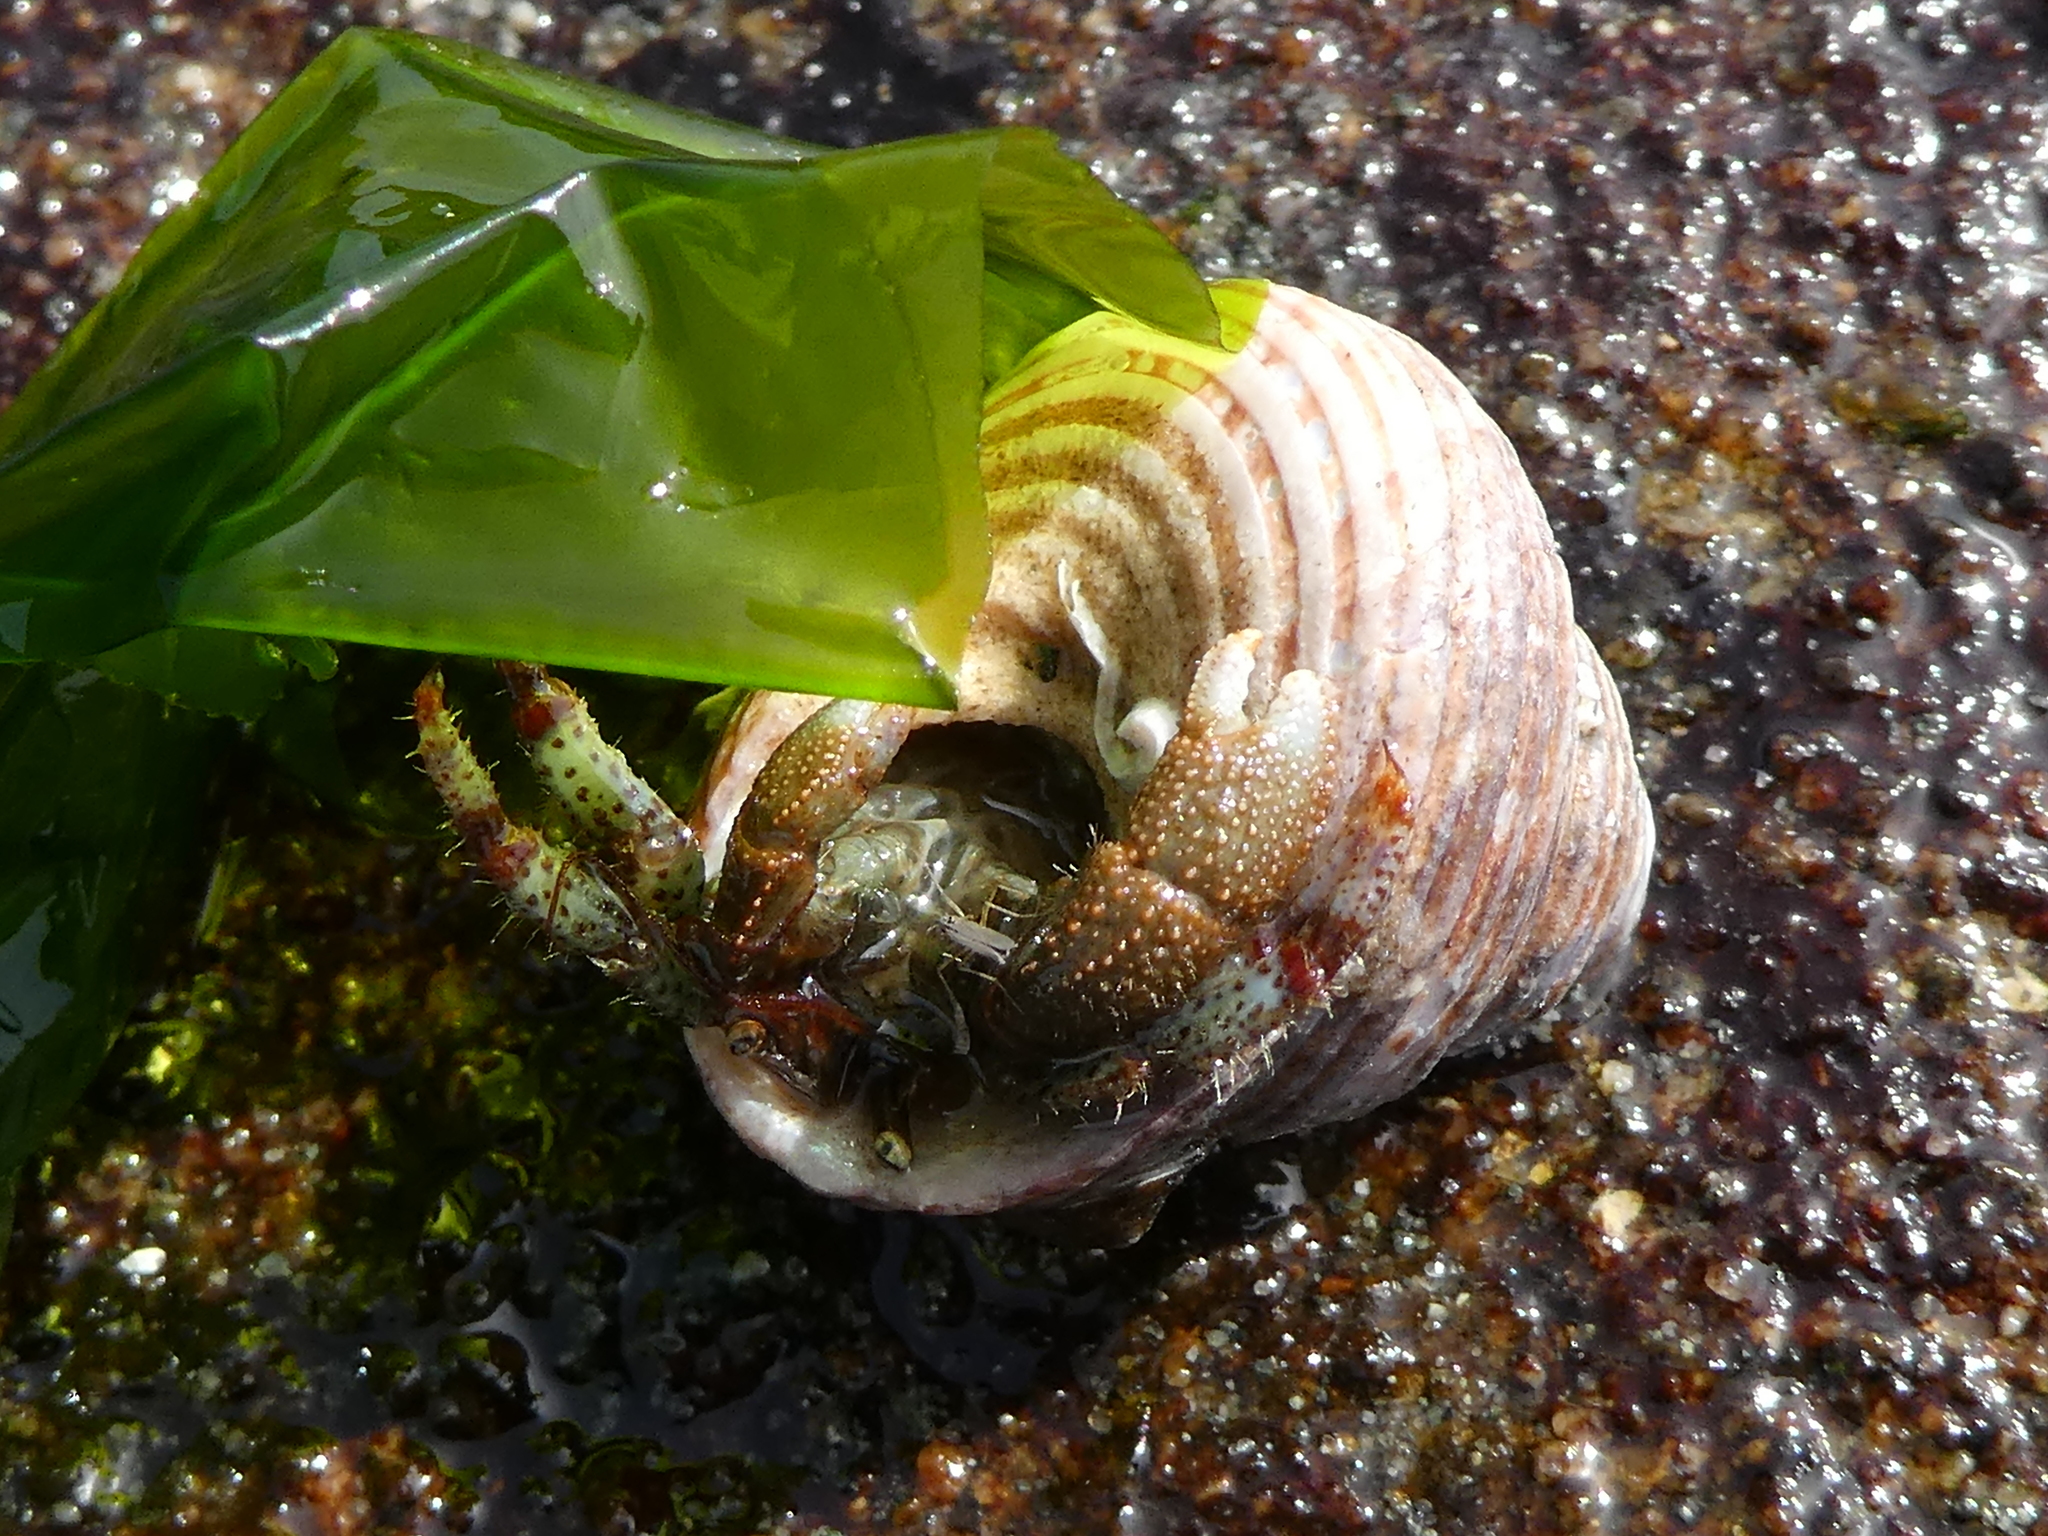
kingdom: Animalia
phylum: Arthropoda
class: Malacostraca
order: Decapoda
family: Paguridae
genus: Pagurus
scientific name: Pagurus beringanus
